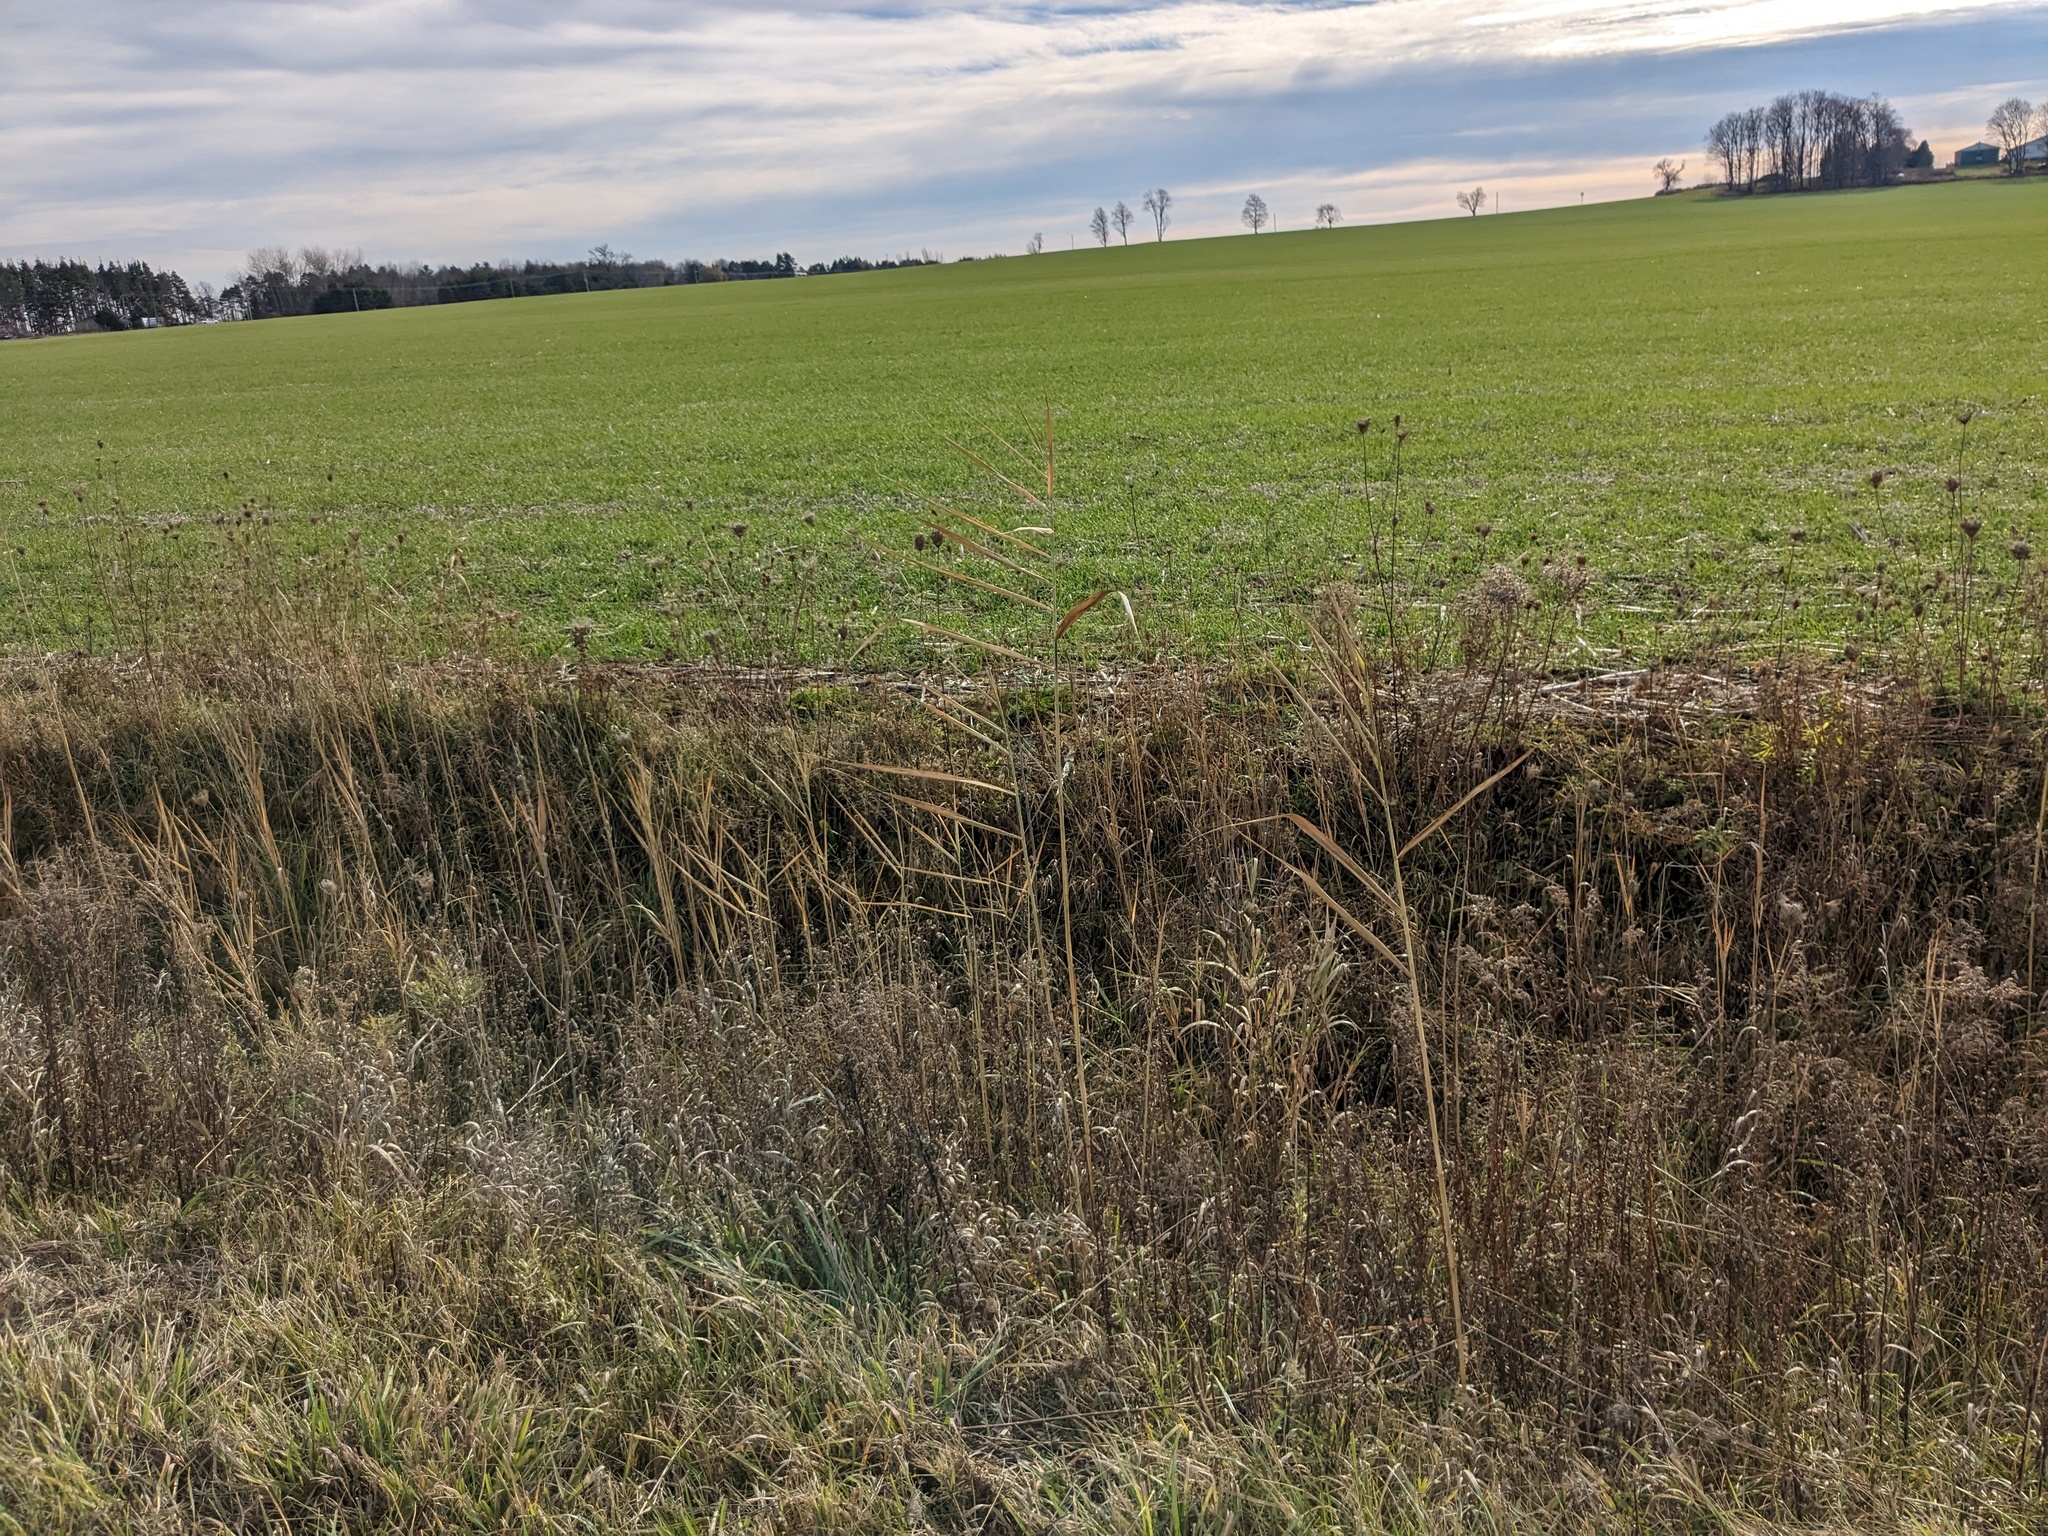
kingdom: Plantae
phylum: Tracheophyta
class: Liliopsida
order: Poales
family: Poaceae
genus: Phragmites
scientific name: Phragmites australis
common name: Common reed
